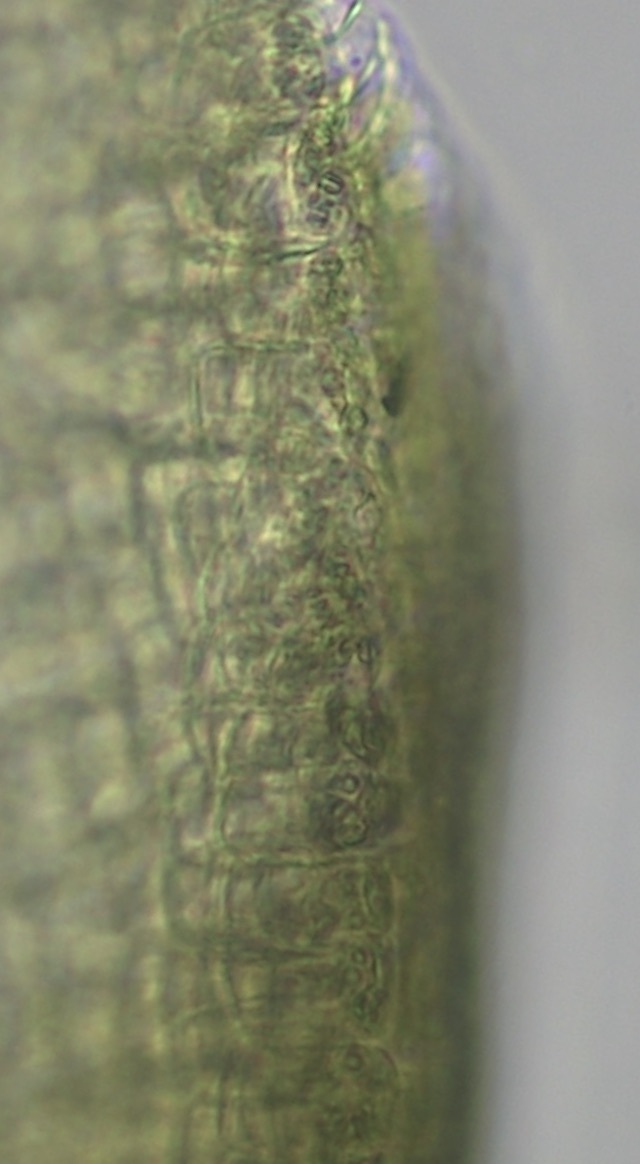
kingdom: Plantae
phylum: Chlorophyta
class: Ulvophyceae
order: Ulvales
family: Ulvaceae
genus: Ulva
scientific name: Ulva intestinalis
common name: Gut weed
